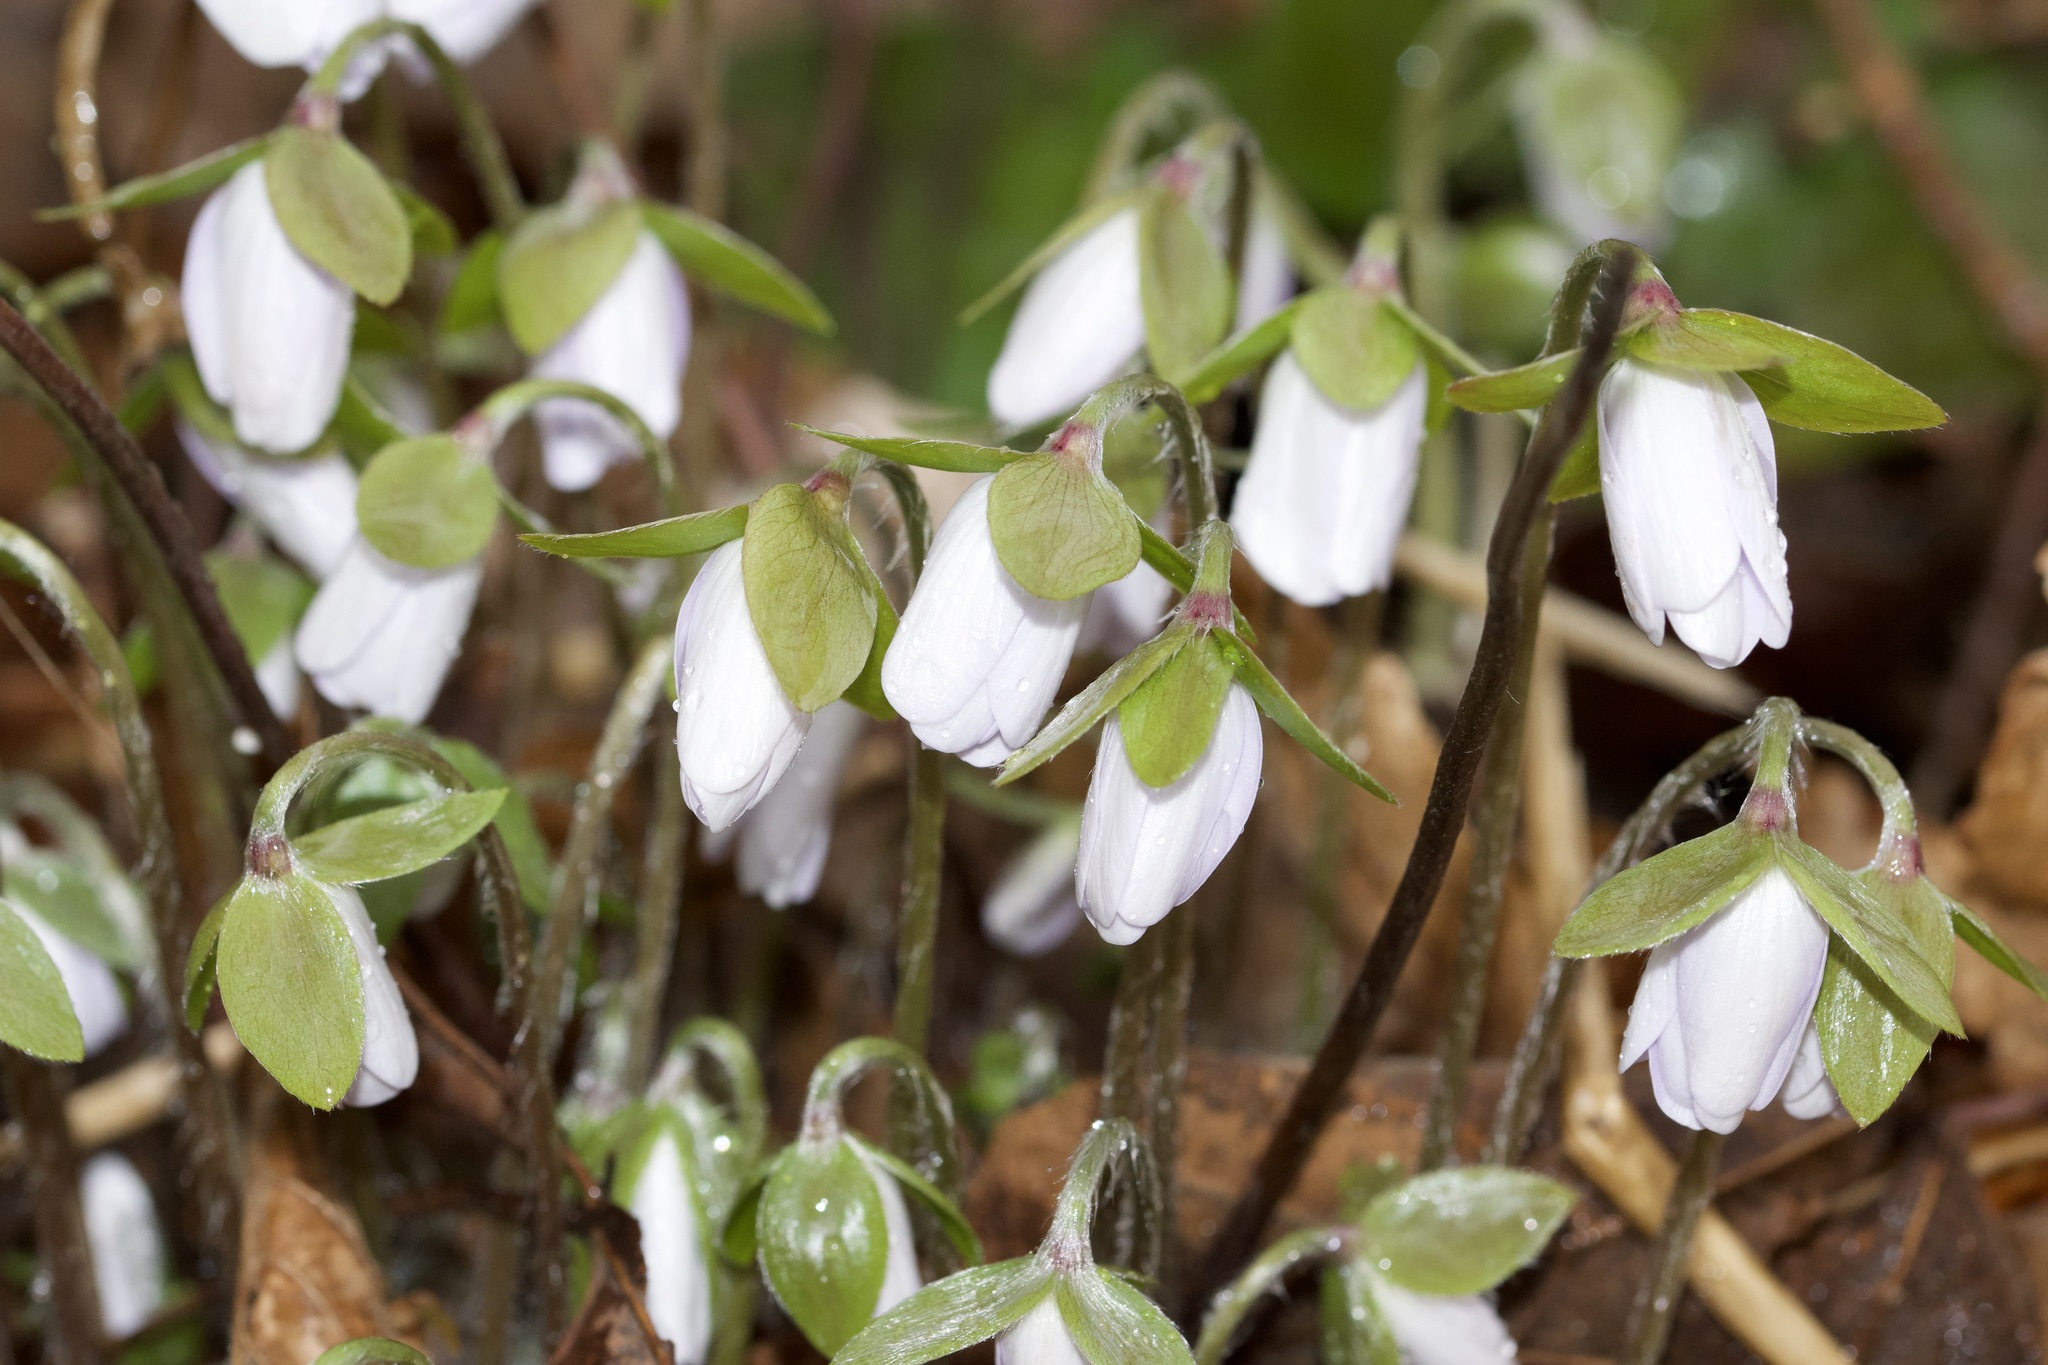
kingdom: Plantae
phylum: Tracheophyta
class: Magnoliopsida
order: Ranunculales
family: Ranunculaceae
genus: Hepatica
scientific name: Hepatica acutiloba
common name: Sharp-lobed hepatica
